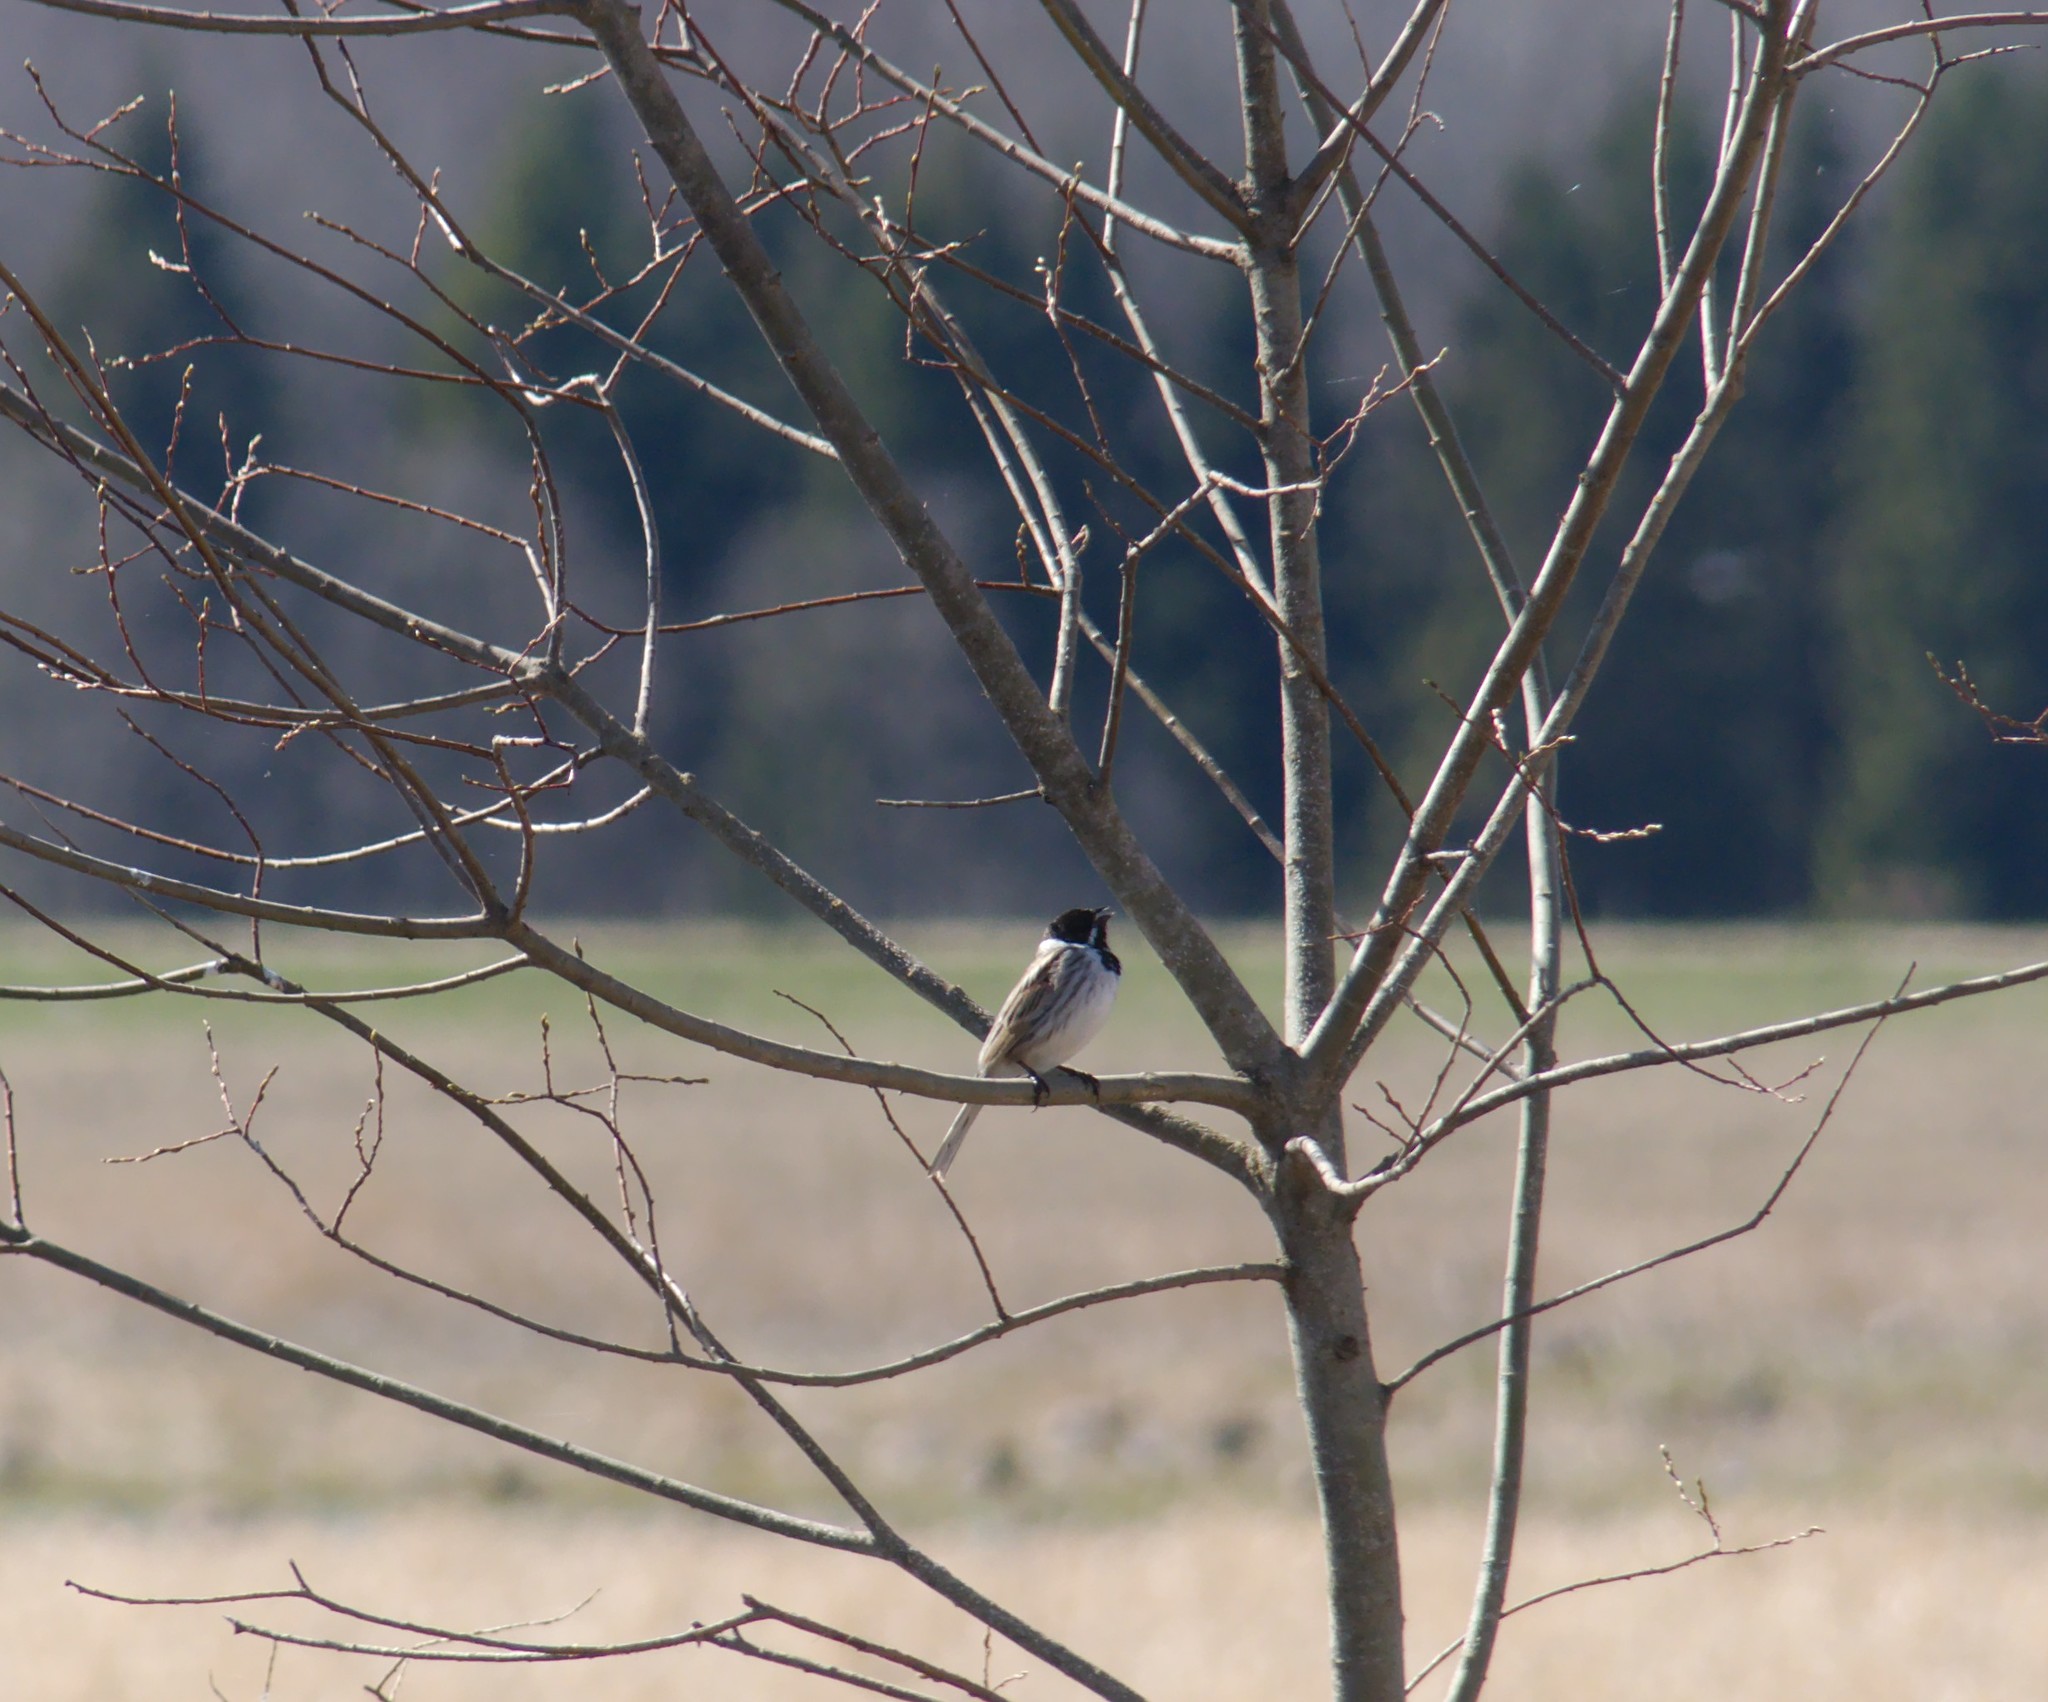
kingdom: Animalia
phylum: Chordata
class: Aves
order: Passeriformes
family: Emberizidae
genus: Emberiza
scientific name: Emberiza schoeniclus
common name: Reed bunting
